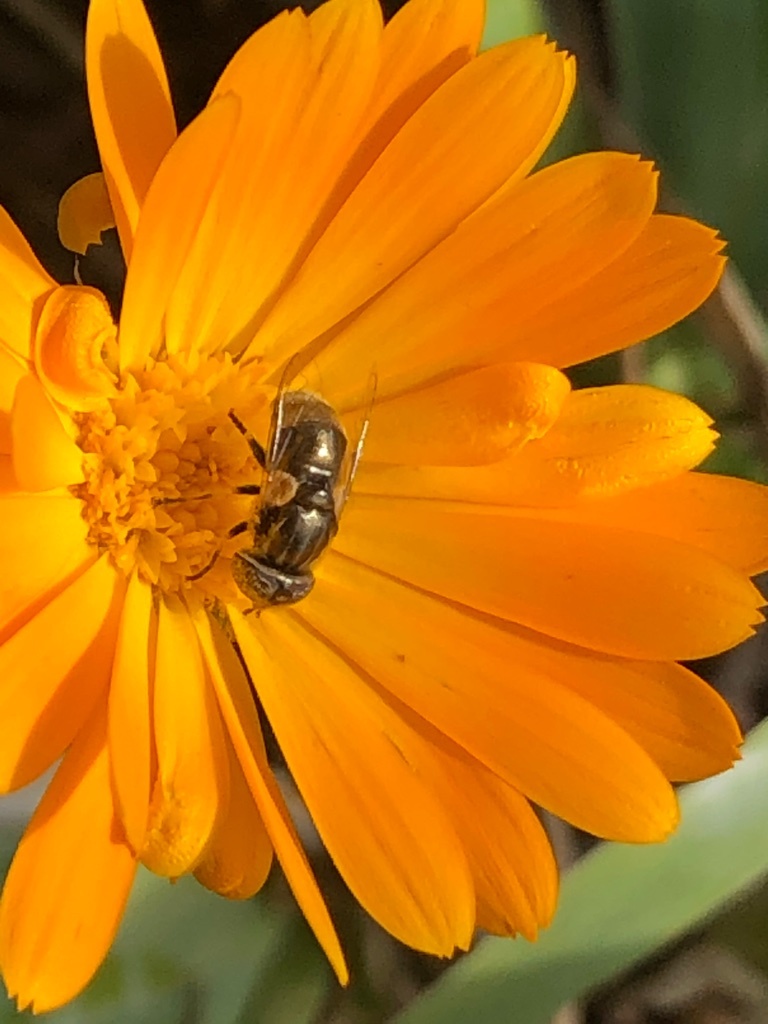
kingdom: Animalia
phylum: Arthropoda
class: Insecta
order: Diptera
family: Syrphidae
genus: Eristalinus
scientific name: Eristalinus aeneus
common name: Syrphid fly
